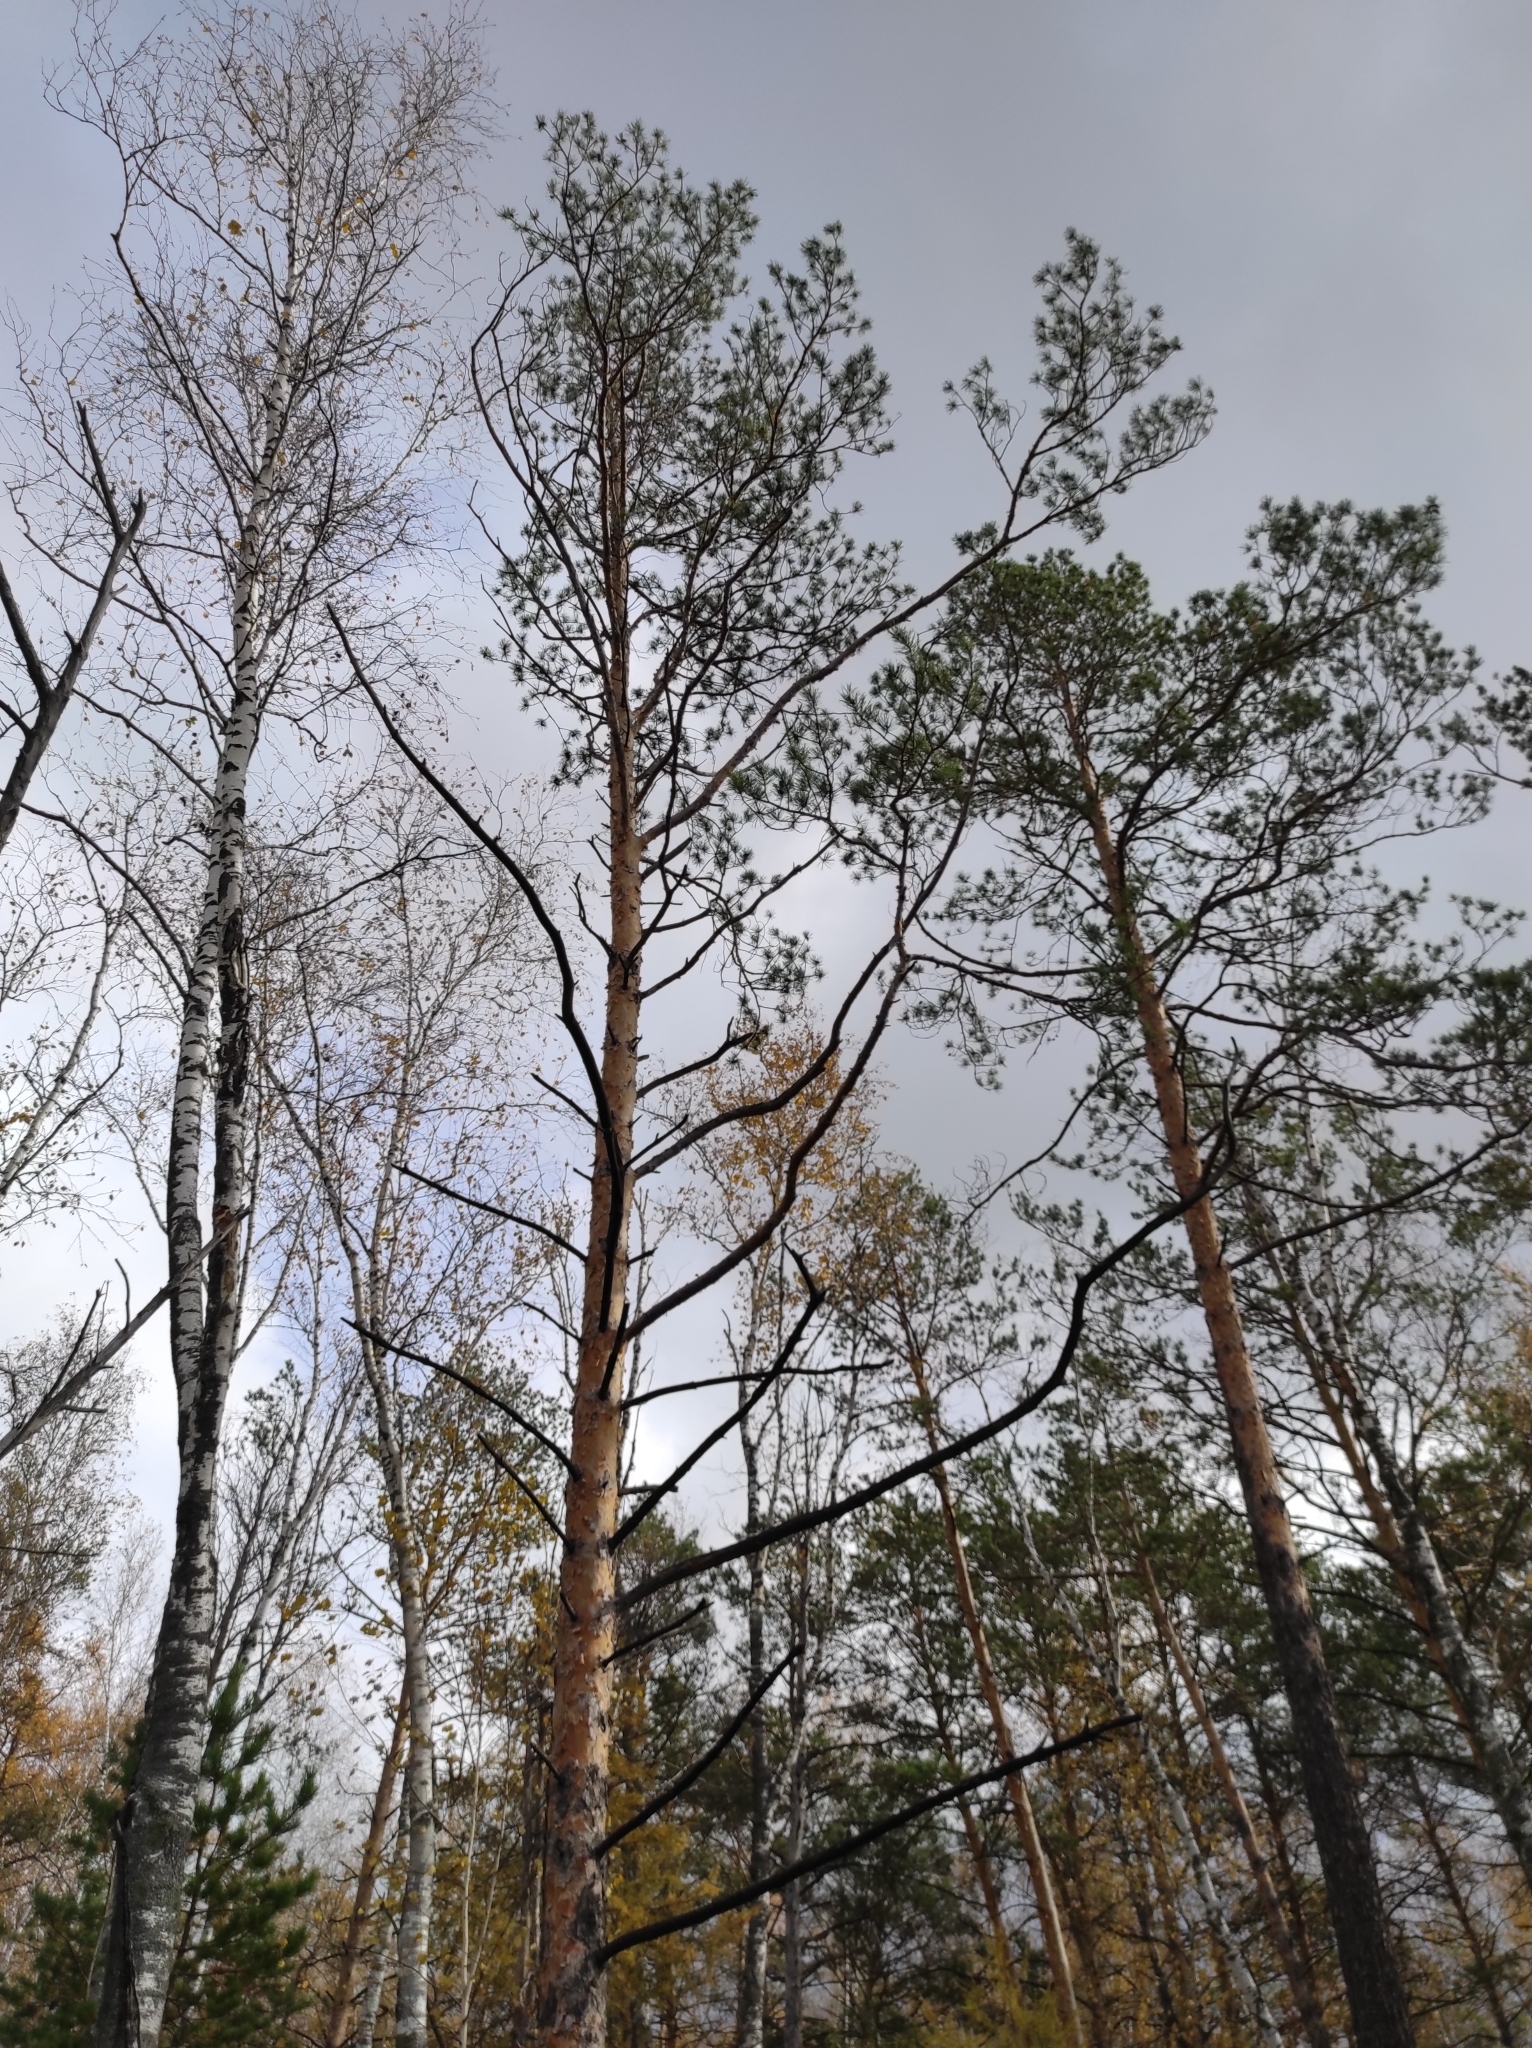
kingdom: Plantae
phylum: Tracheophyta
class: Pinopsida
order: Pinales
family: Pinaceae
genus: Pinus
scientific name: Pinus sylvestris
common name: Scots pine
